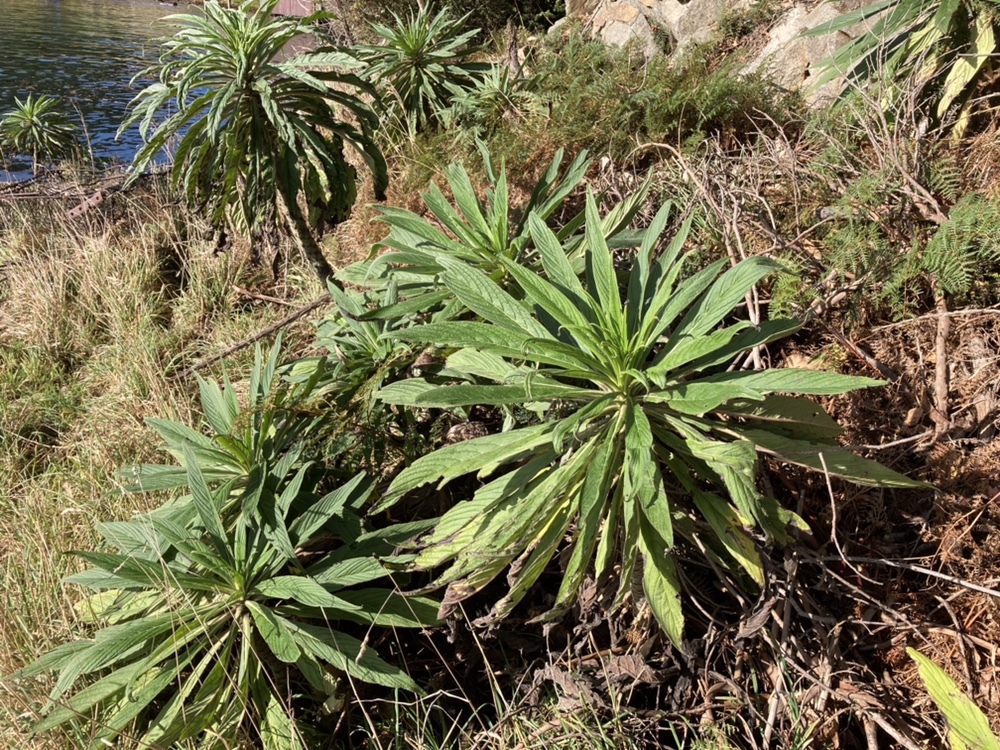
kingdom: Plantae
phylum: Tracheophyta
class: Magnoliopsida
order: Boraginales
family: Boraginaceae
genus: Echium
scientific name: Echium pininana
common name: Giant viper's-bugloss
